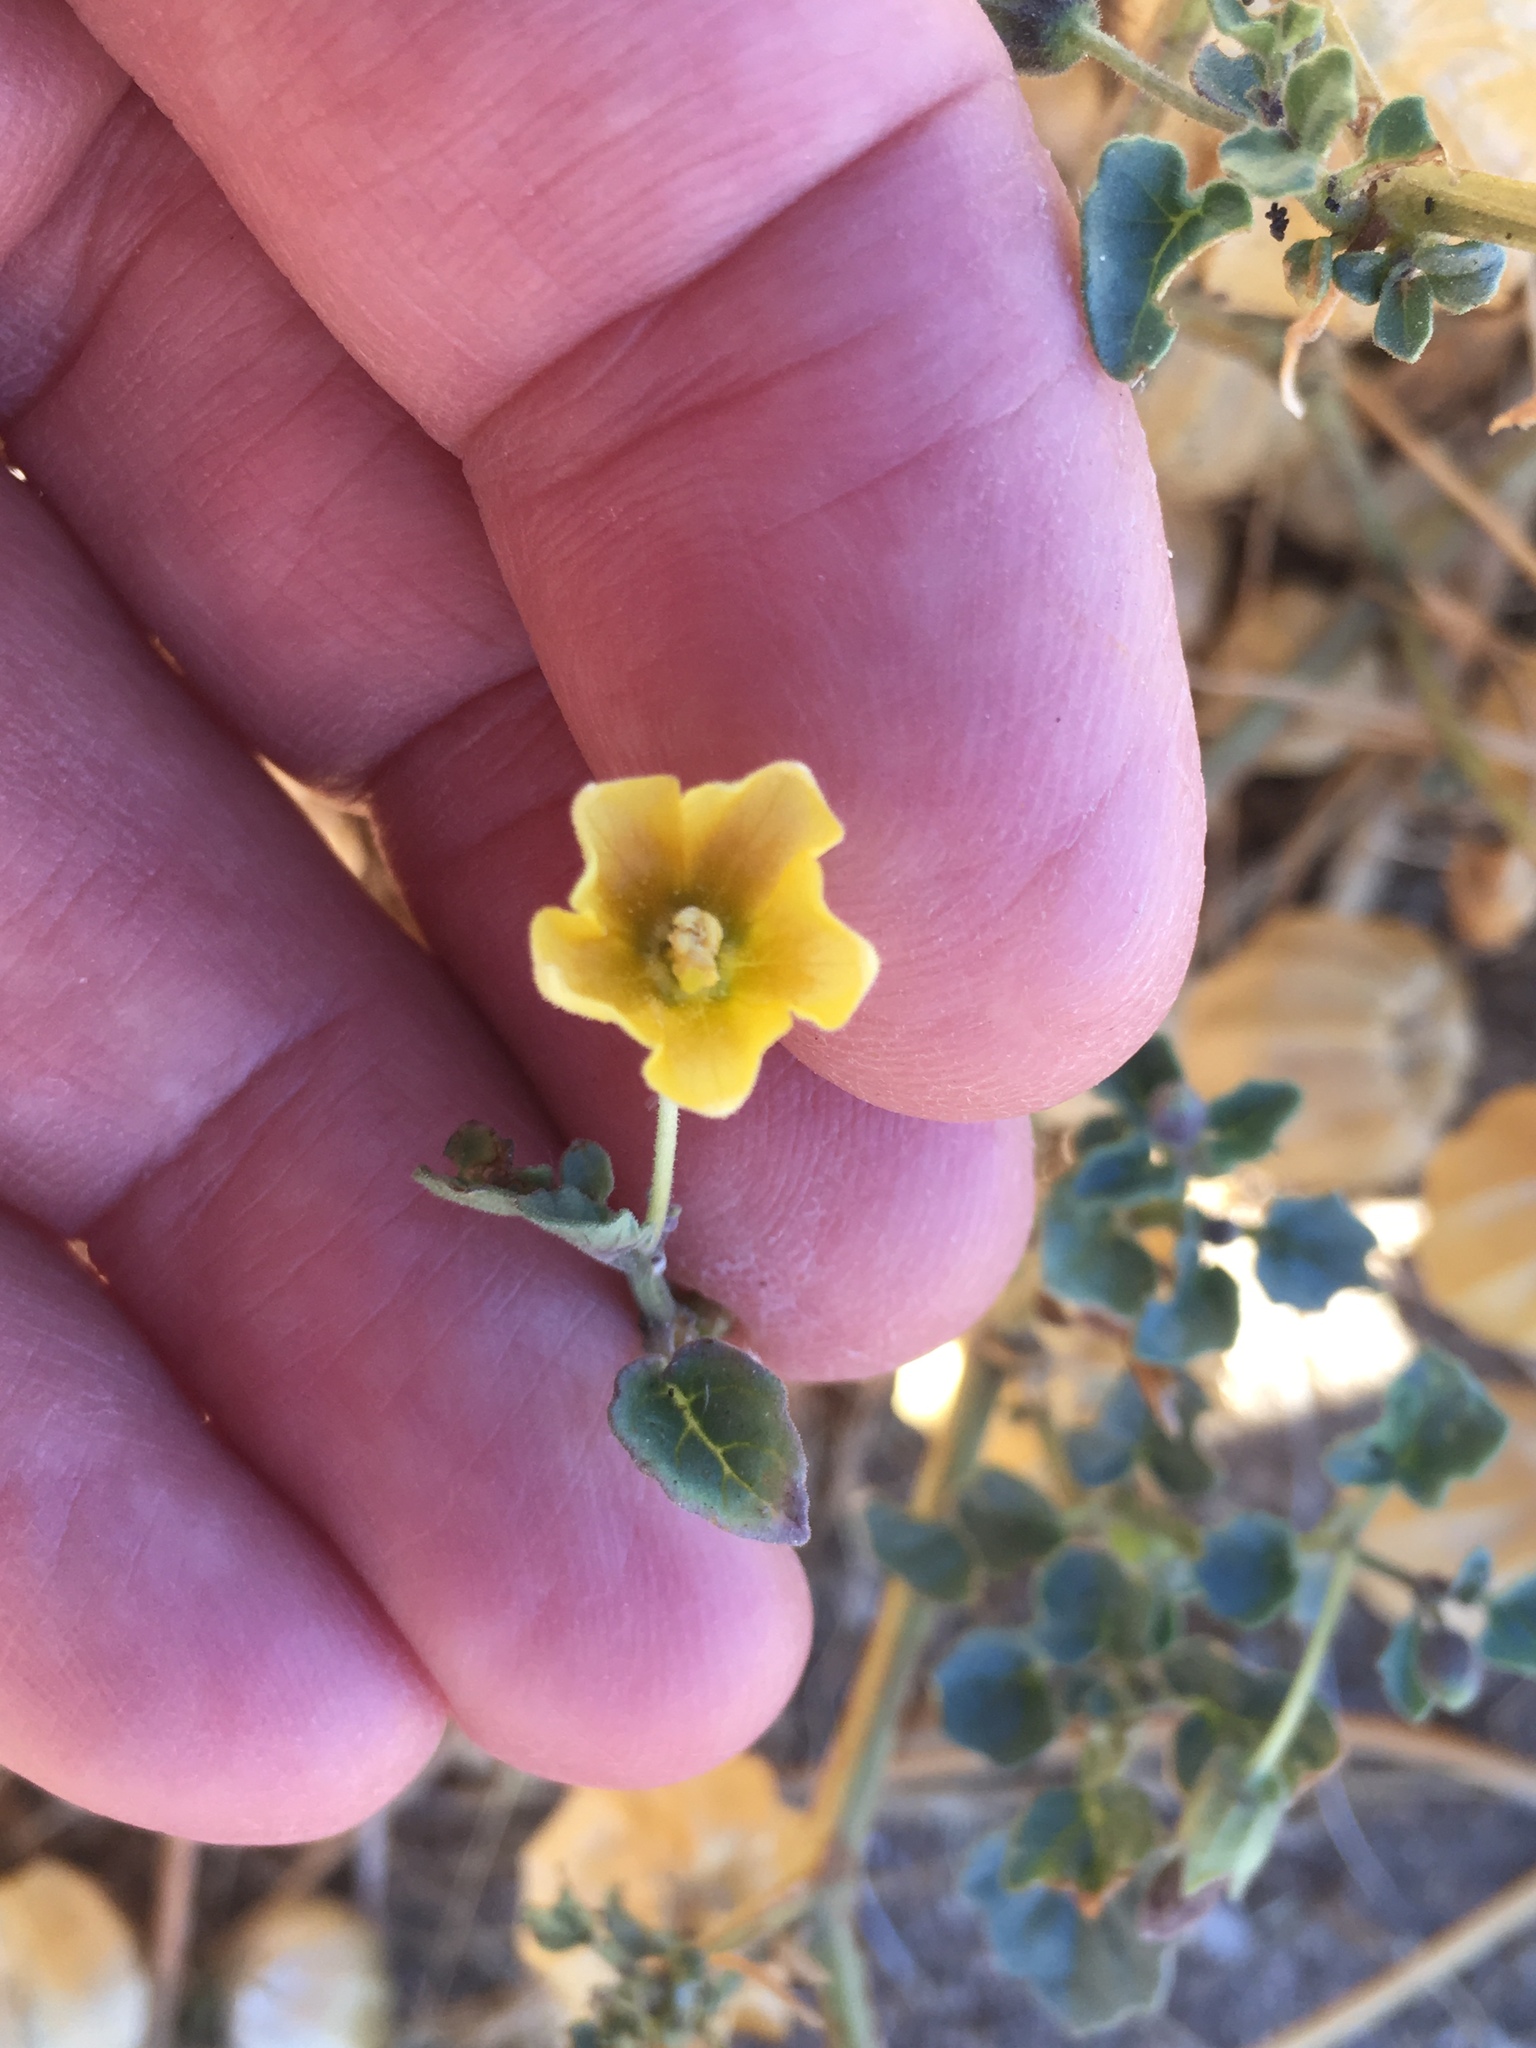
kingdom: Plantae
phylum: Tracheophyta
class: Magnoliopsida
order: Solanales
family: Solanaceae
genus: Physalis
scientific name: Physalis crassifolia
